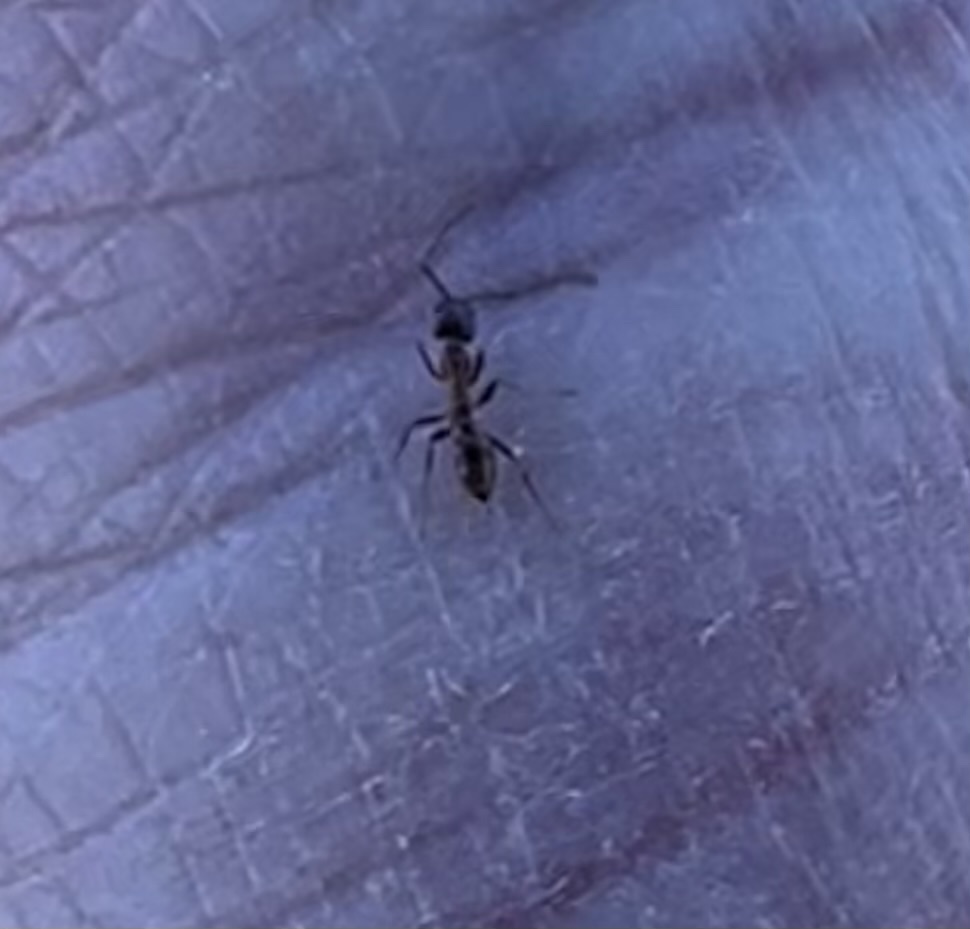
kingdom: Animalia
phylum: Arthropoda
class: Insecta
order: Hymenoptera
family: Formicidae
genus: Linepithema
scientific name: Linepithema humile
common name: Argentine ant
